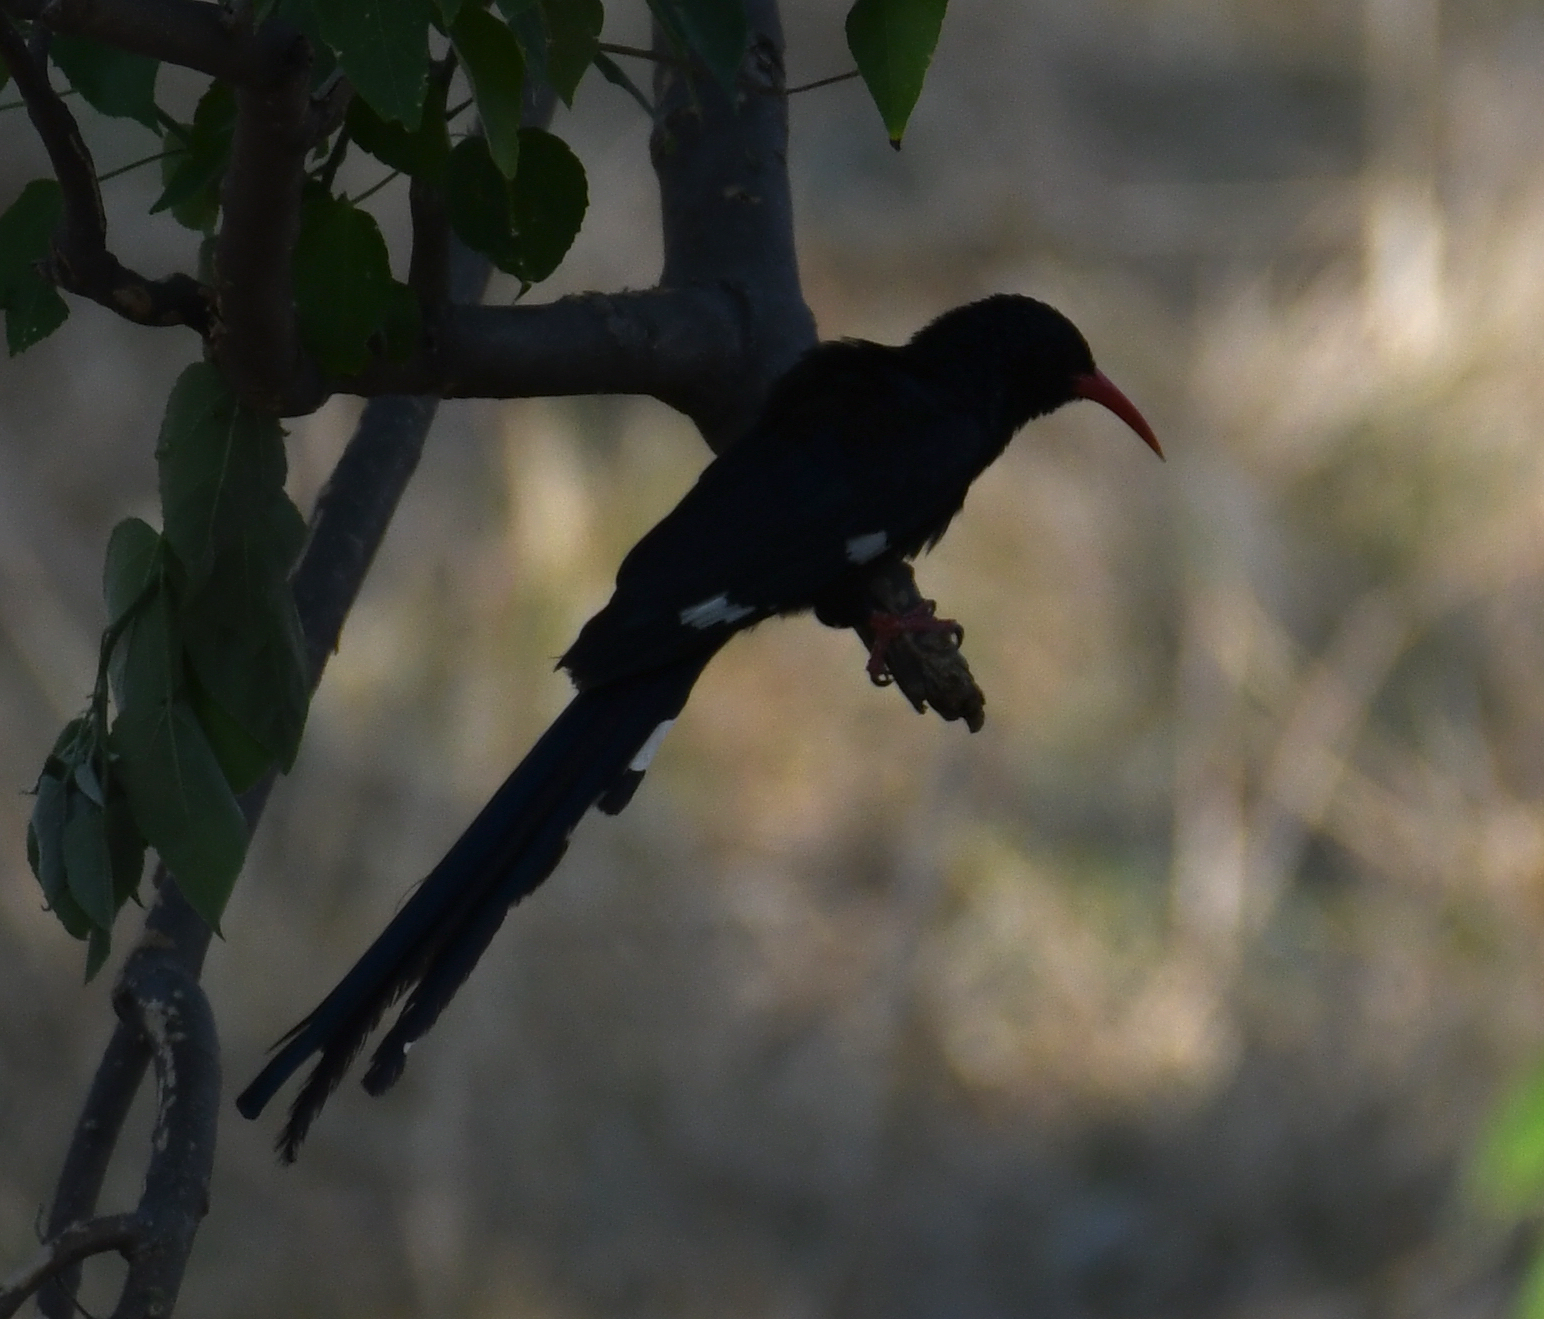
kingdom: Animalia
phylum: Chordata
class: Aves
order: Bucerotiformes
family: Phoeniculidae
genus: Phoeniculus
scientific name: Phoeniculus purpureus
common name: Green woodhoopoe
